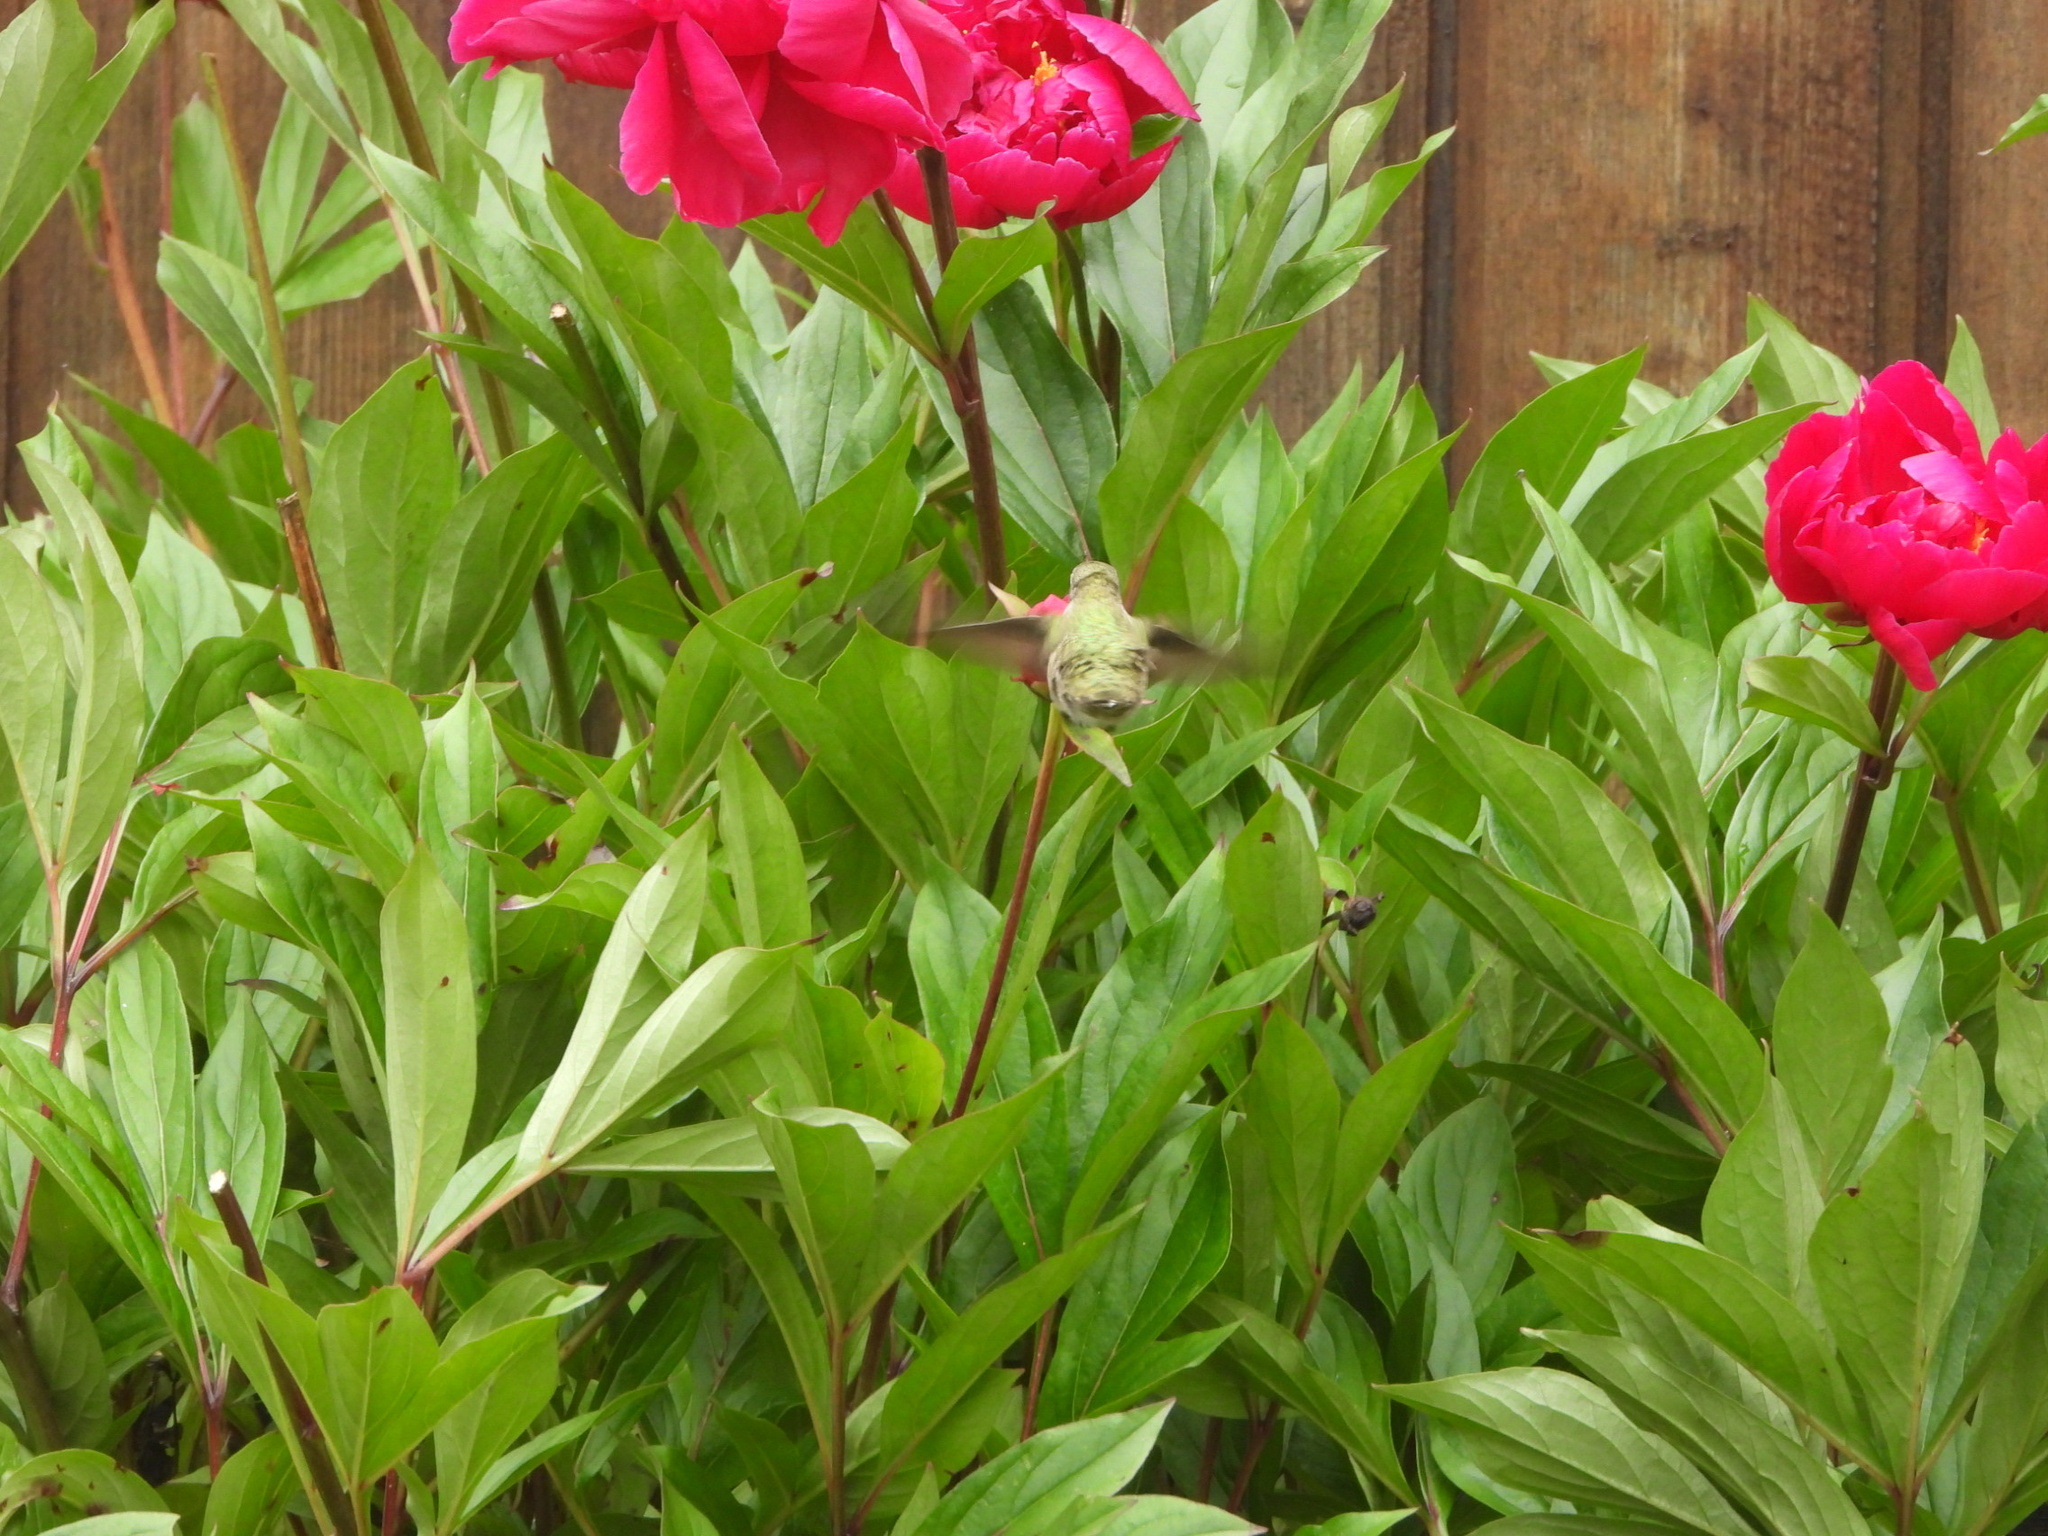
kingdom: Animalia
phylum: Chordata
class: Aves
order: Apodiformes
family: Trochilidae
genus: Calypte
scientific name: Calypte anna
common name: Anna's hummingbird
